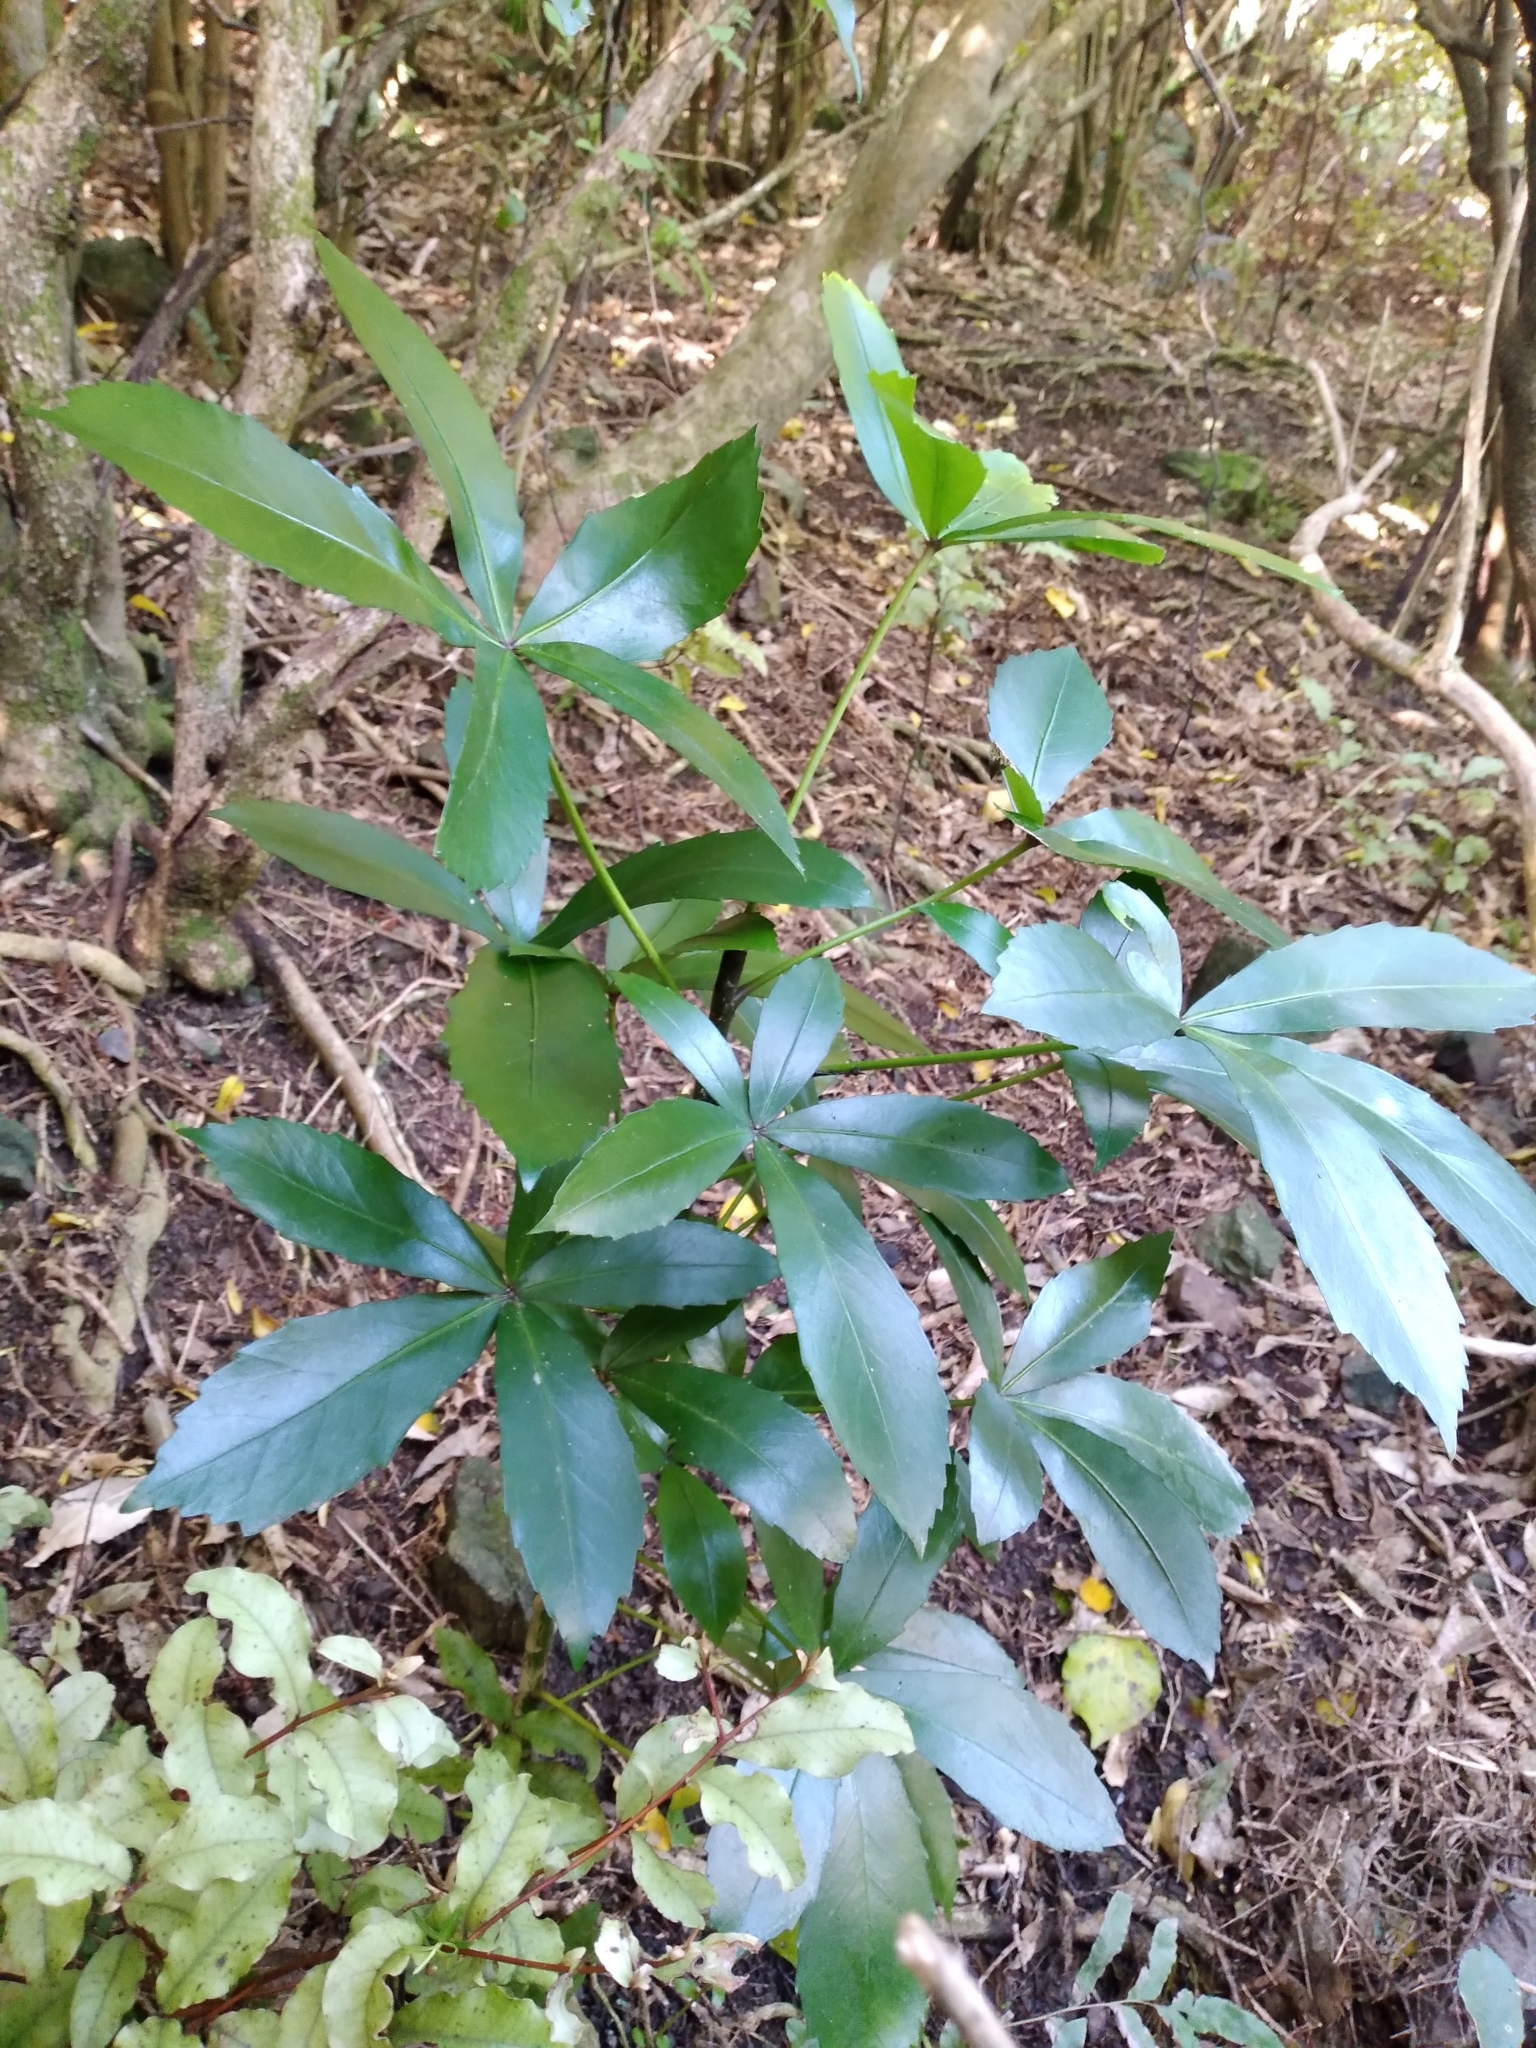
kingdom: Plantae
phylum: Tracheophyta
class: Magnoliopsida
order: Apiales
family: Araliaceae
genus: Pseudopanax
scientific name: Pseudopanax lessonii
